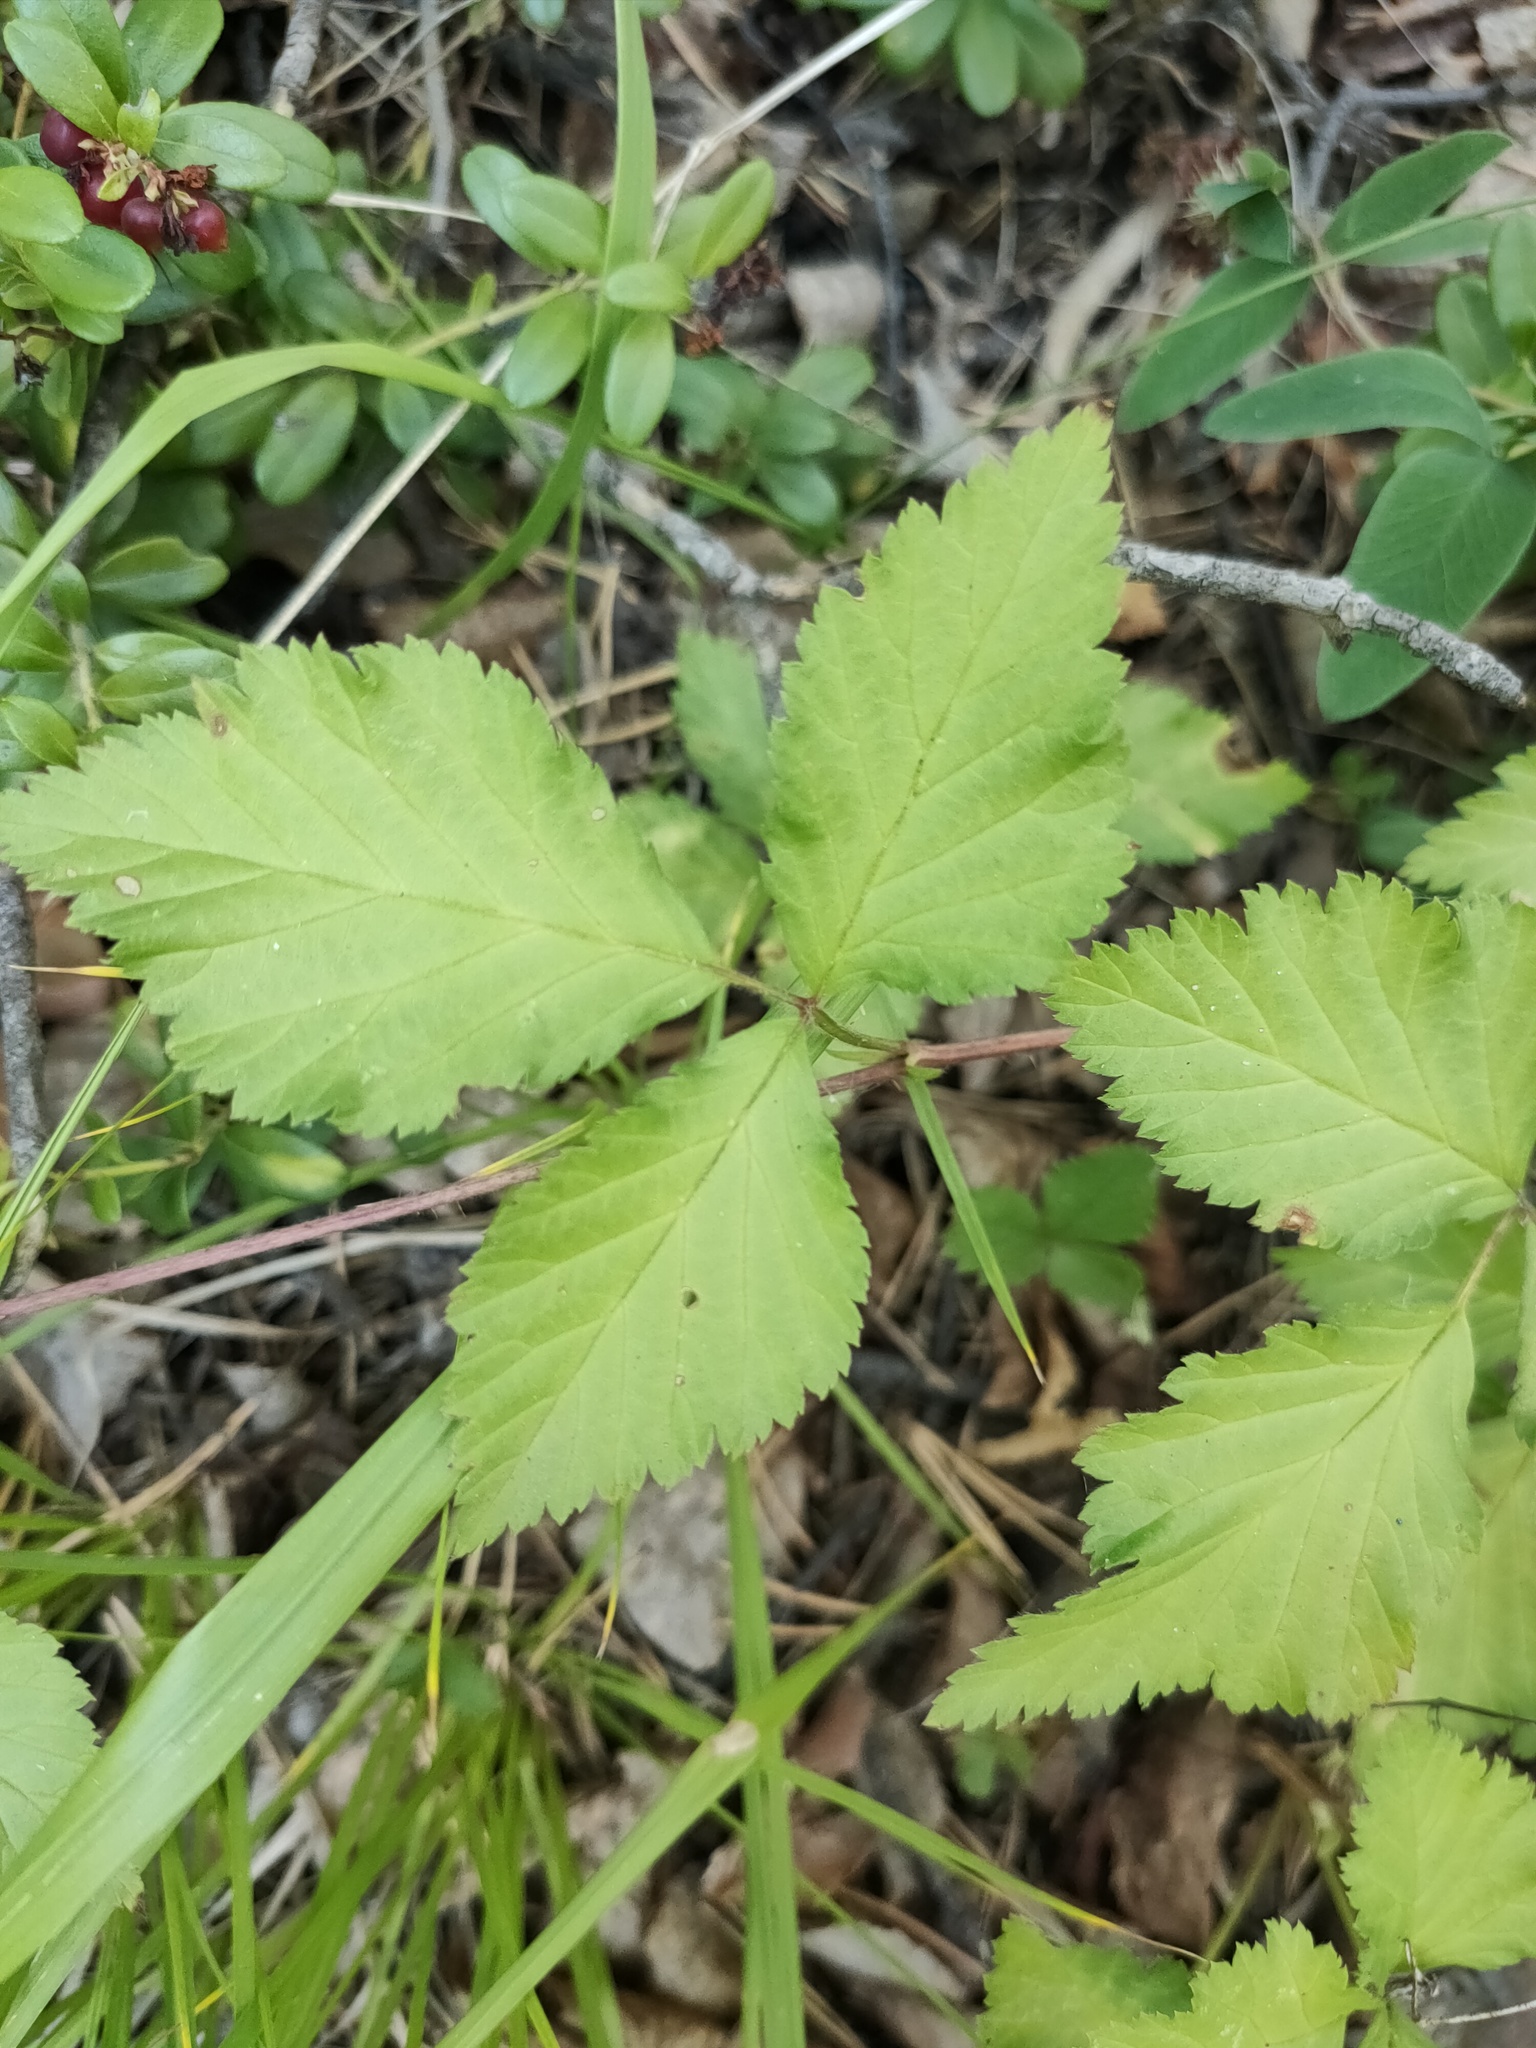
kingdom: Plantae
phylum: Tracheophyta
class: Magnoliopsida
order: Rosales
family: Rosaceae
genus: Rubus
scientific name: Rubus saxatilis
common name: Stone bramble
